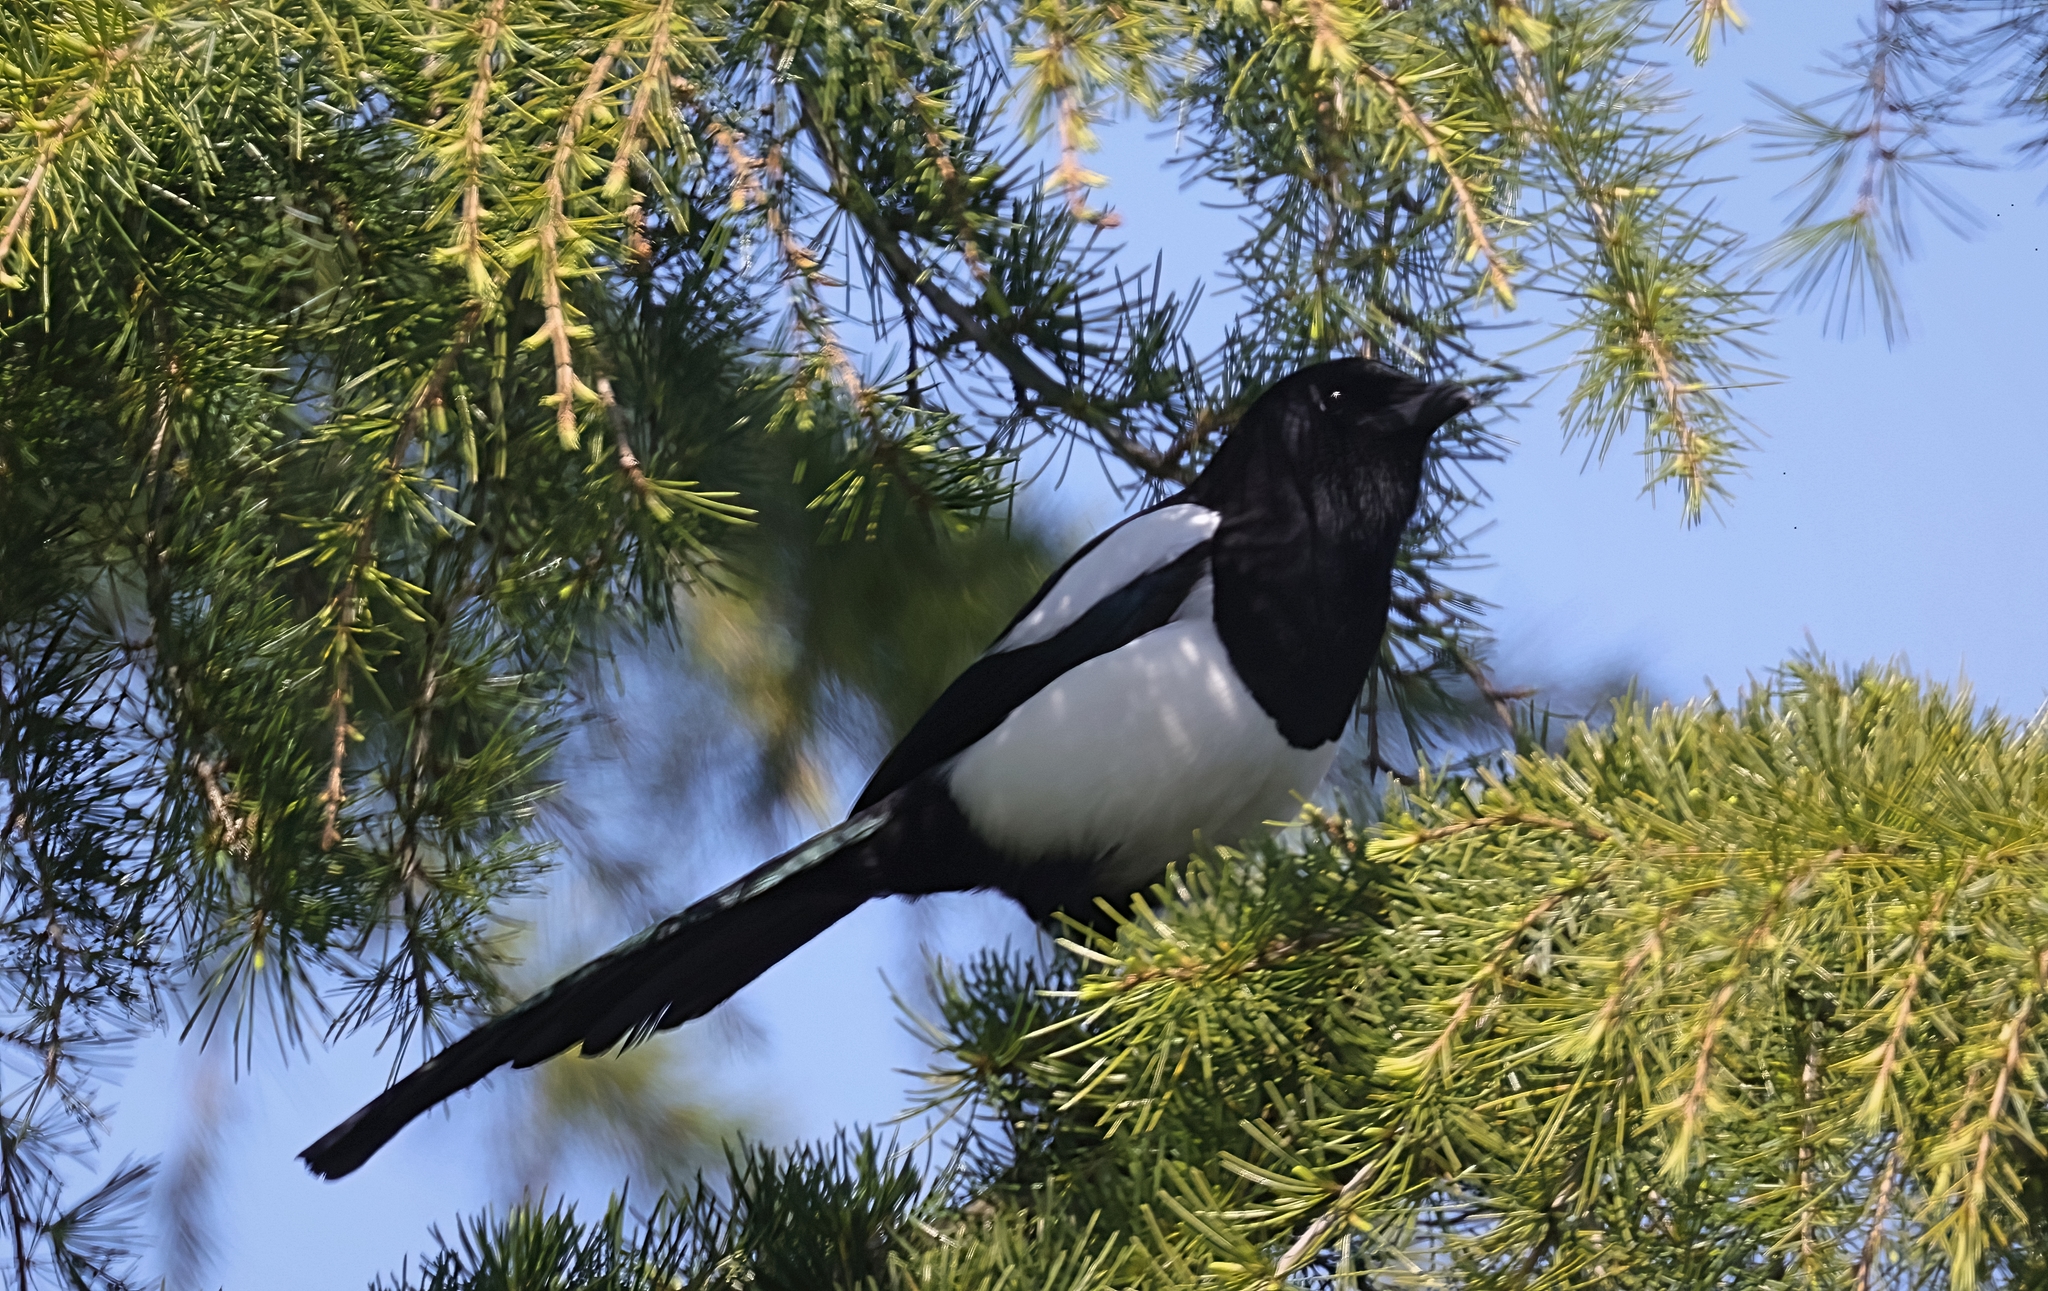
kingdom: Animalia
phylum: Chordata
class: Aves
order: Passeriformes
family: Corvidae
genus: Pica
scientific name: Pica pica
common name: Eurasian magpie
